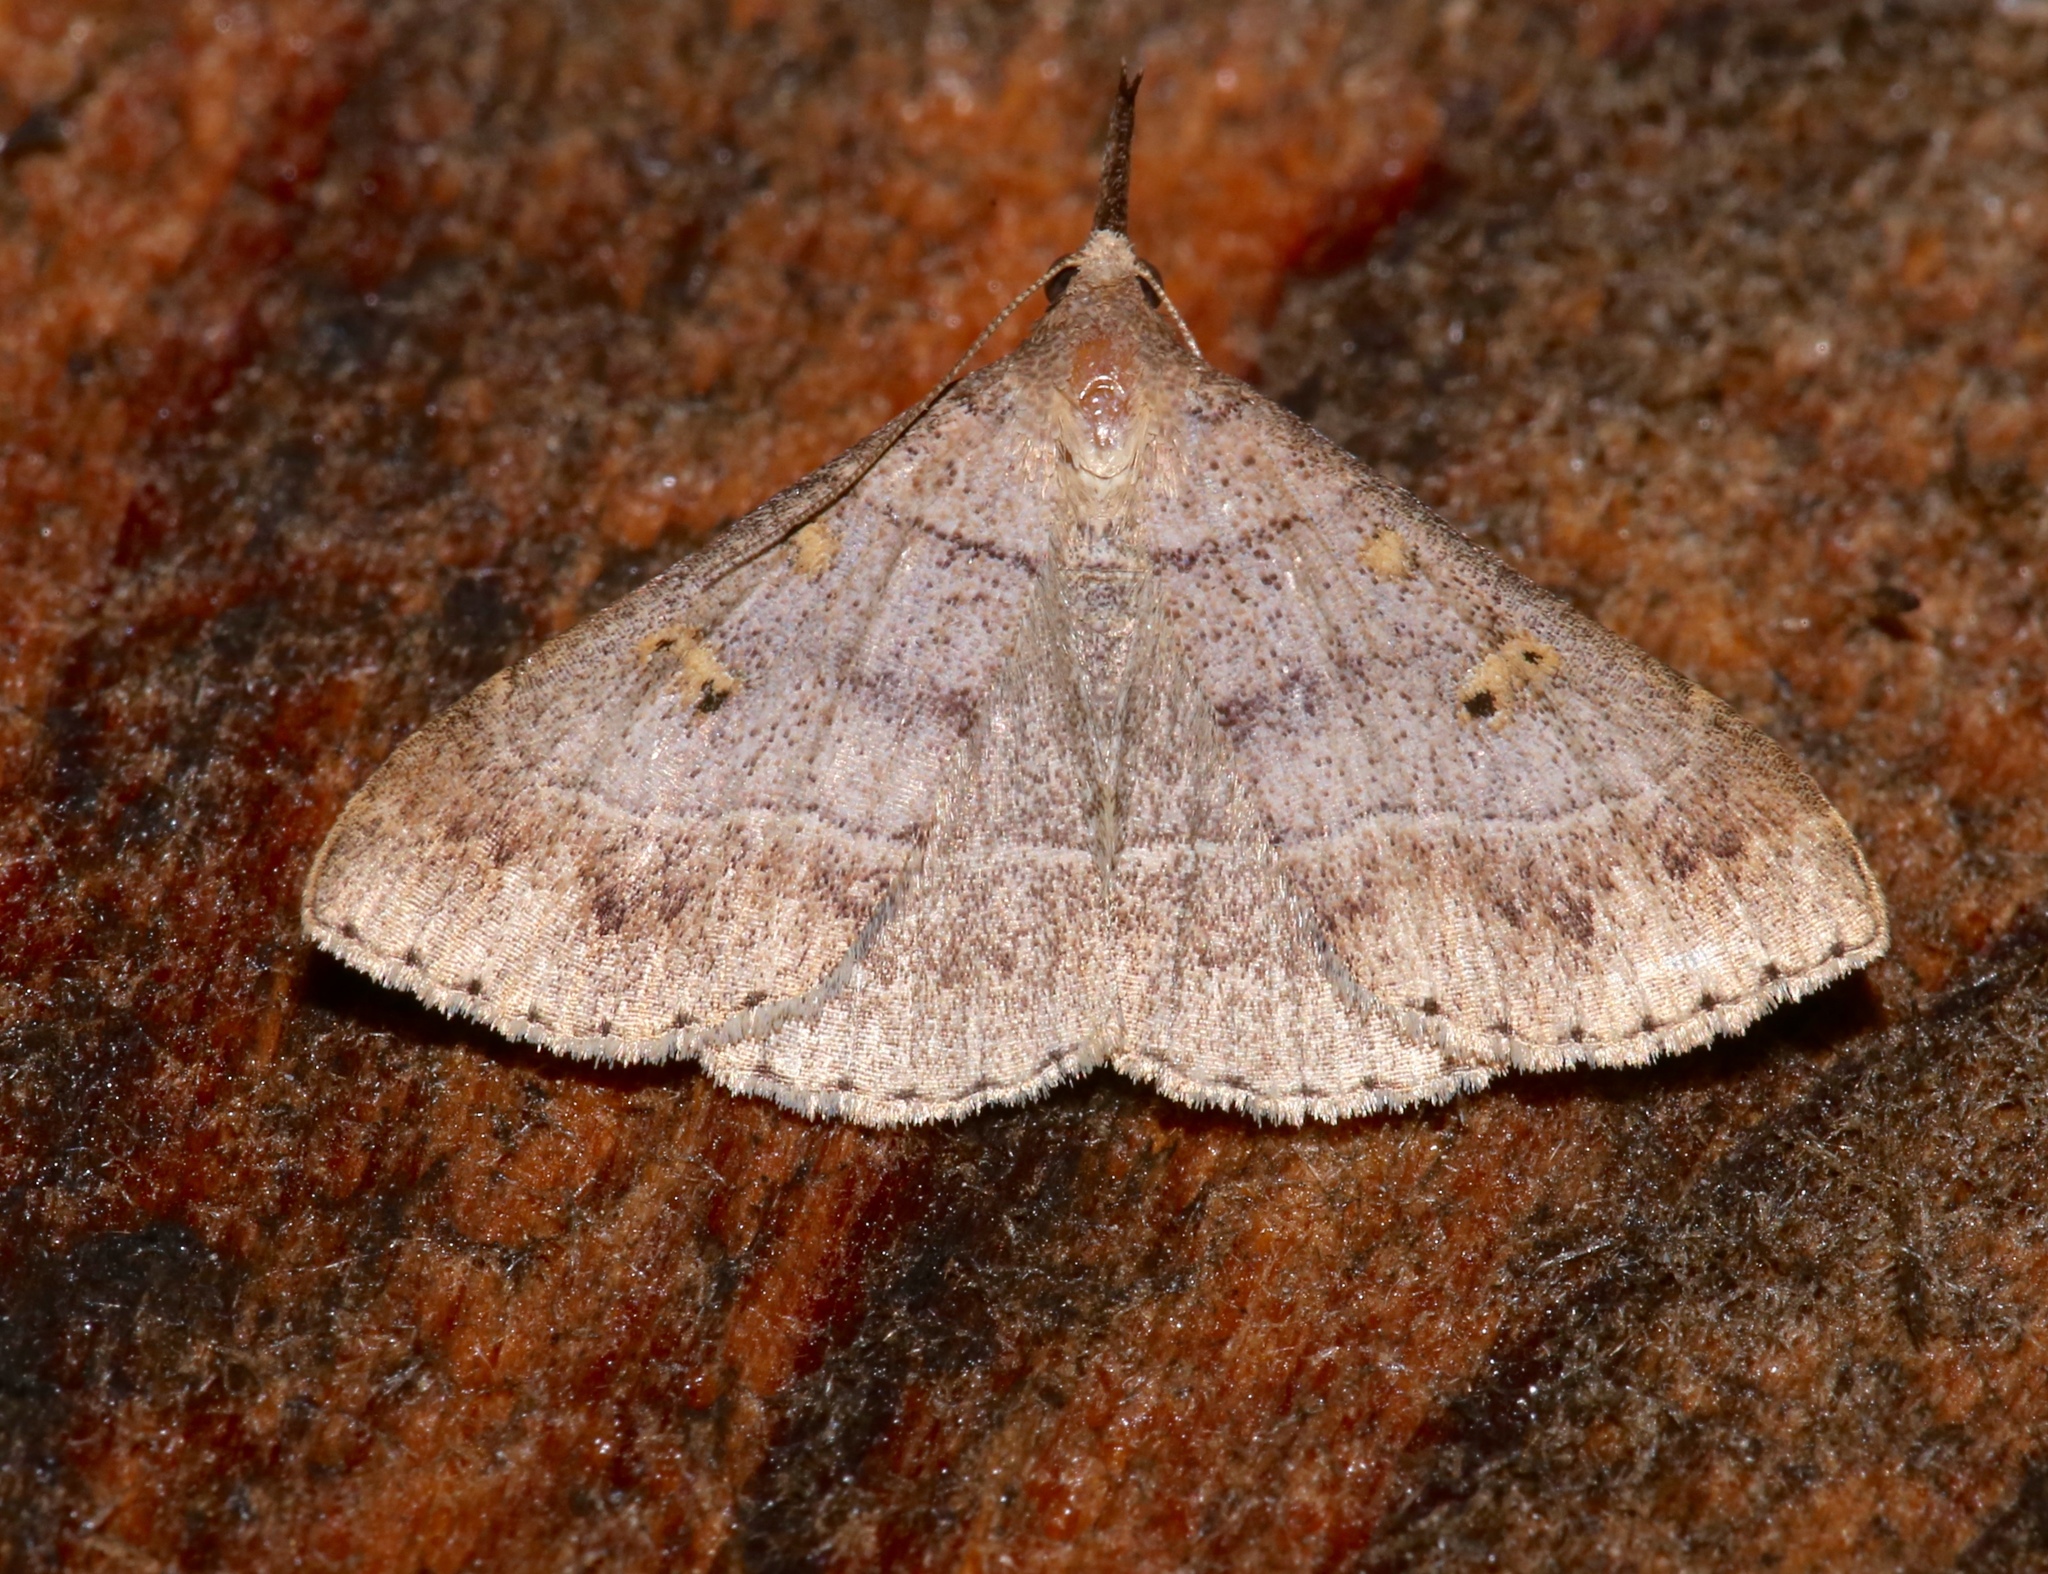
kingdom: Animalia
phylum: Arthropoda
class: Insecta
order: Lepidoptera
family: Erebidae
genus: Renia
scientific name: Renia flavipunctalis
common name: Yellow-spotted renia moth
